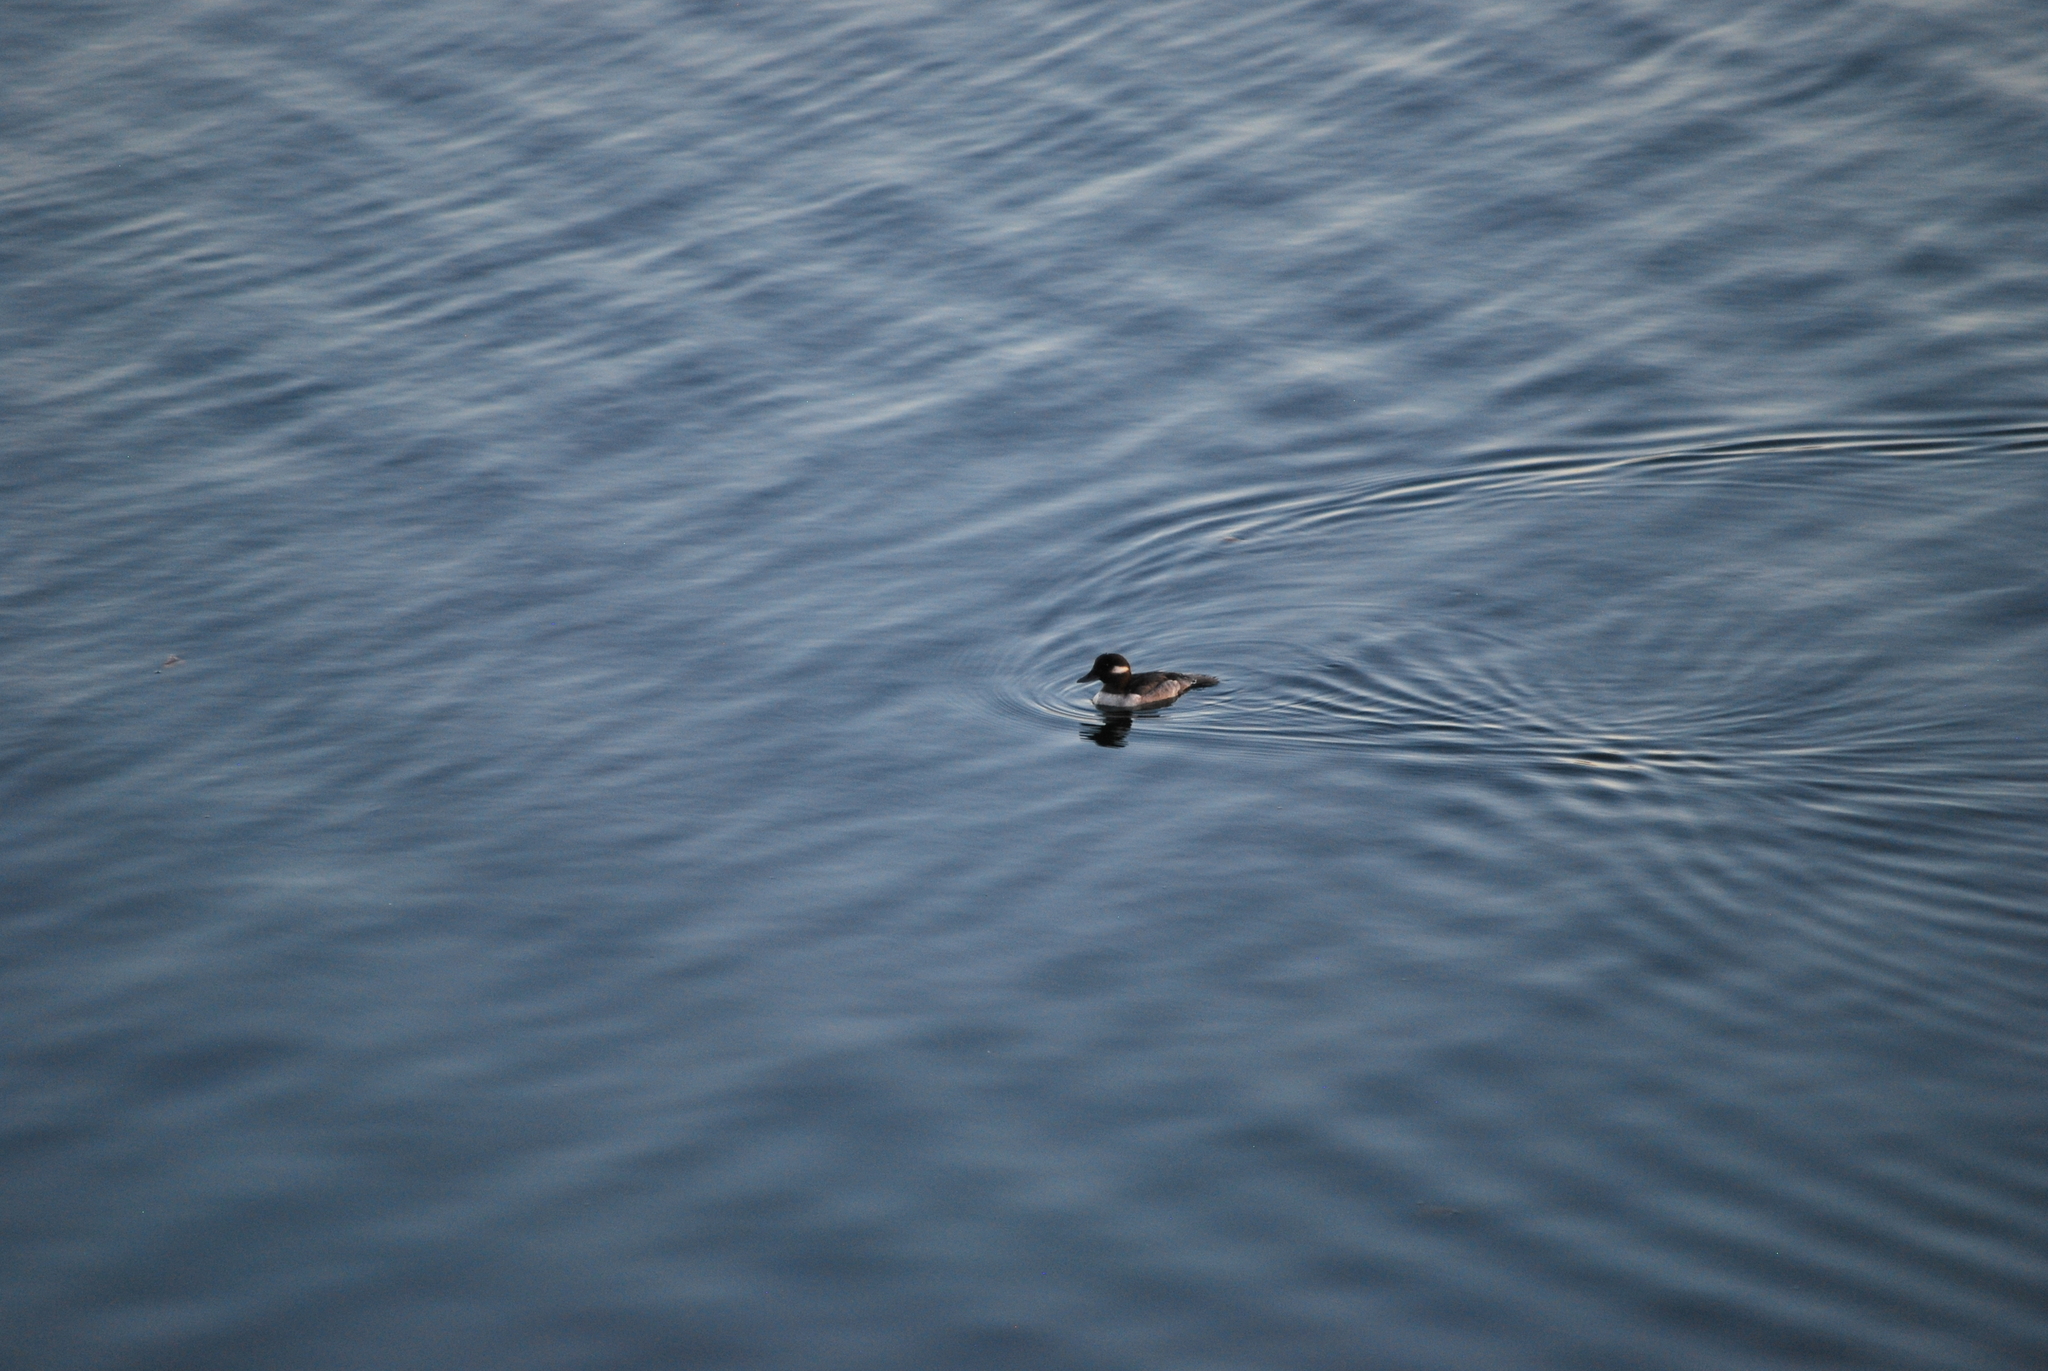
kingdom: Animalia
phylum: Chordata
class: Aves
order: Anseriformes
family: Anatidae
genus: Bucephala
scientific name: Bucephala albeola
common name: Bufflehead
